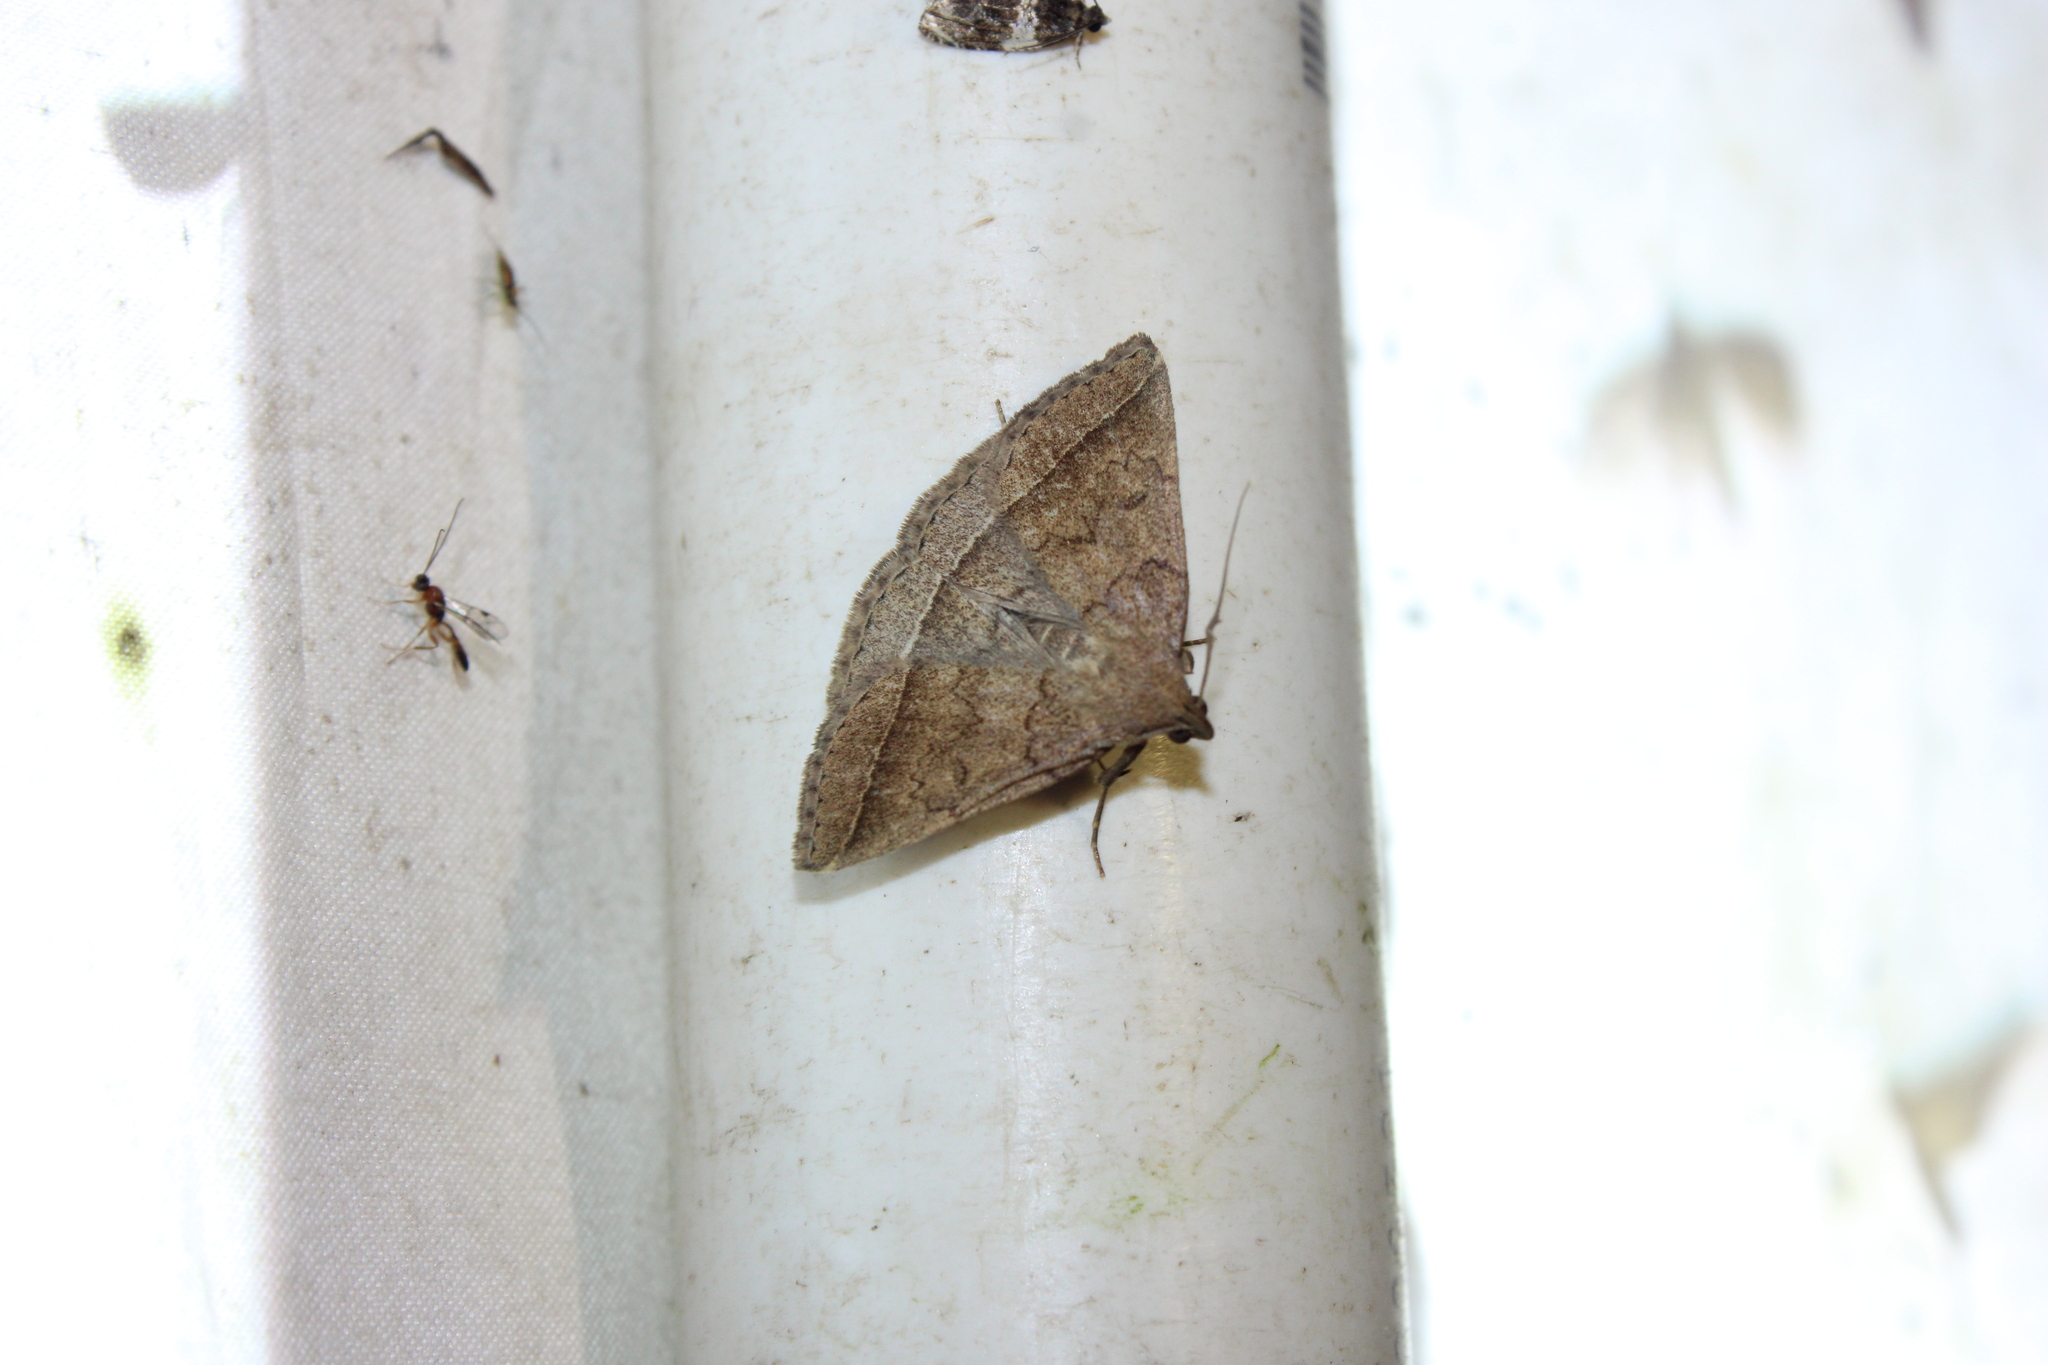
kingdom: Animalia
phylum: Arthropoda
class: Insecta
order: Lepidoptera
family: Erebidae
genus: Zanclognatha
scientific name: Zanclognatha jacchusalis
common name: Yellowish zanclognatha
